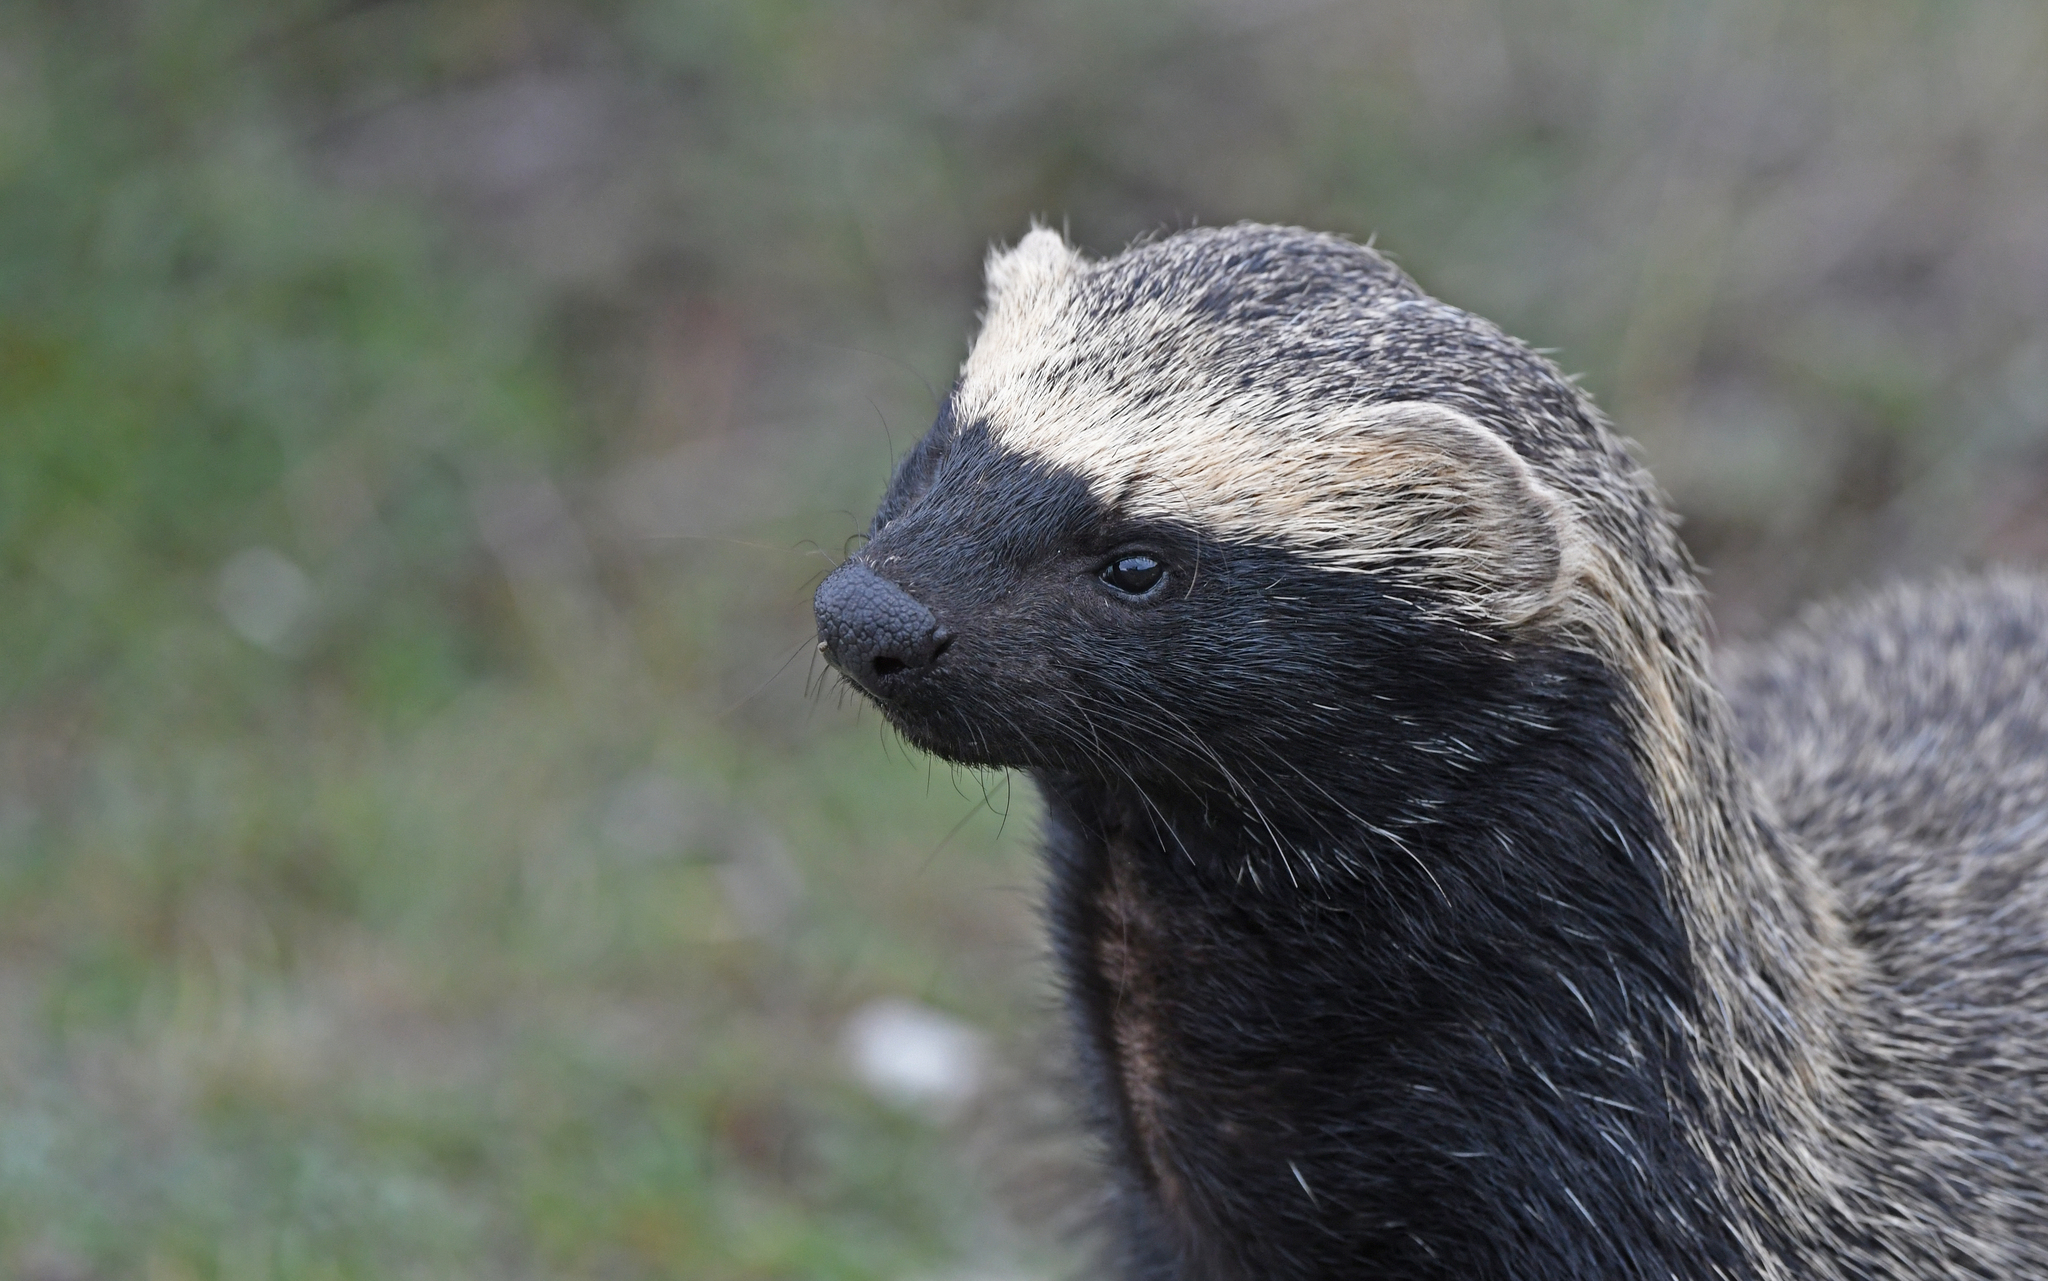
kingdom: Animalia
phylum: Chordata
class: Mammalia
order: Carnivora
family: Mustelidae
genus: Galictis
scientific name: Galictis cuja
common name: Lesser grison
